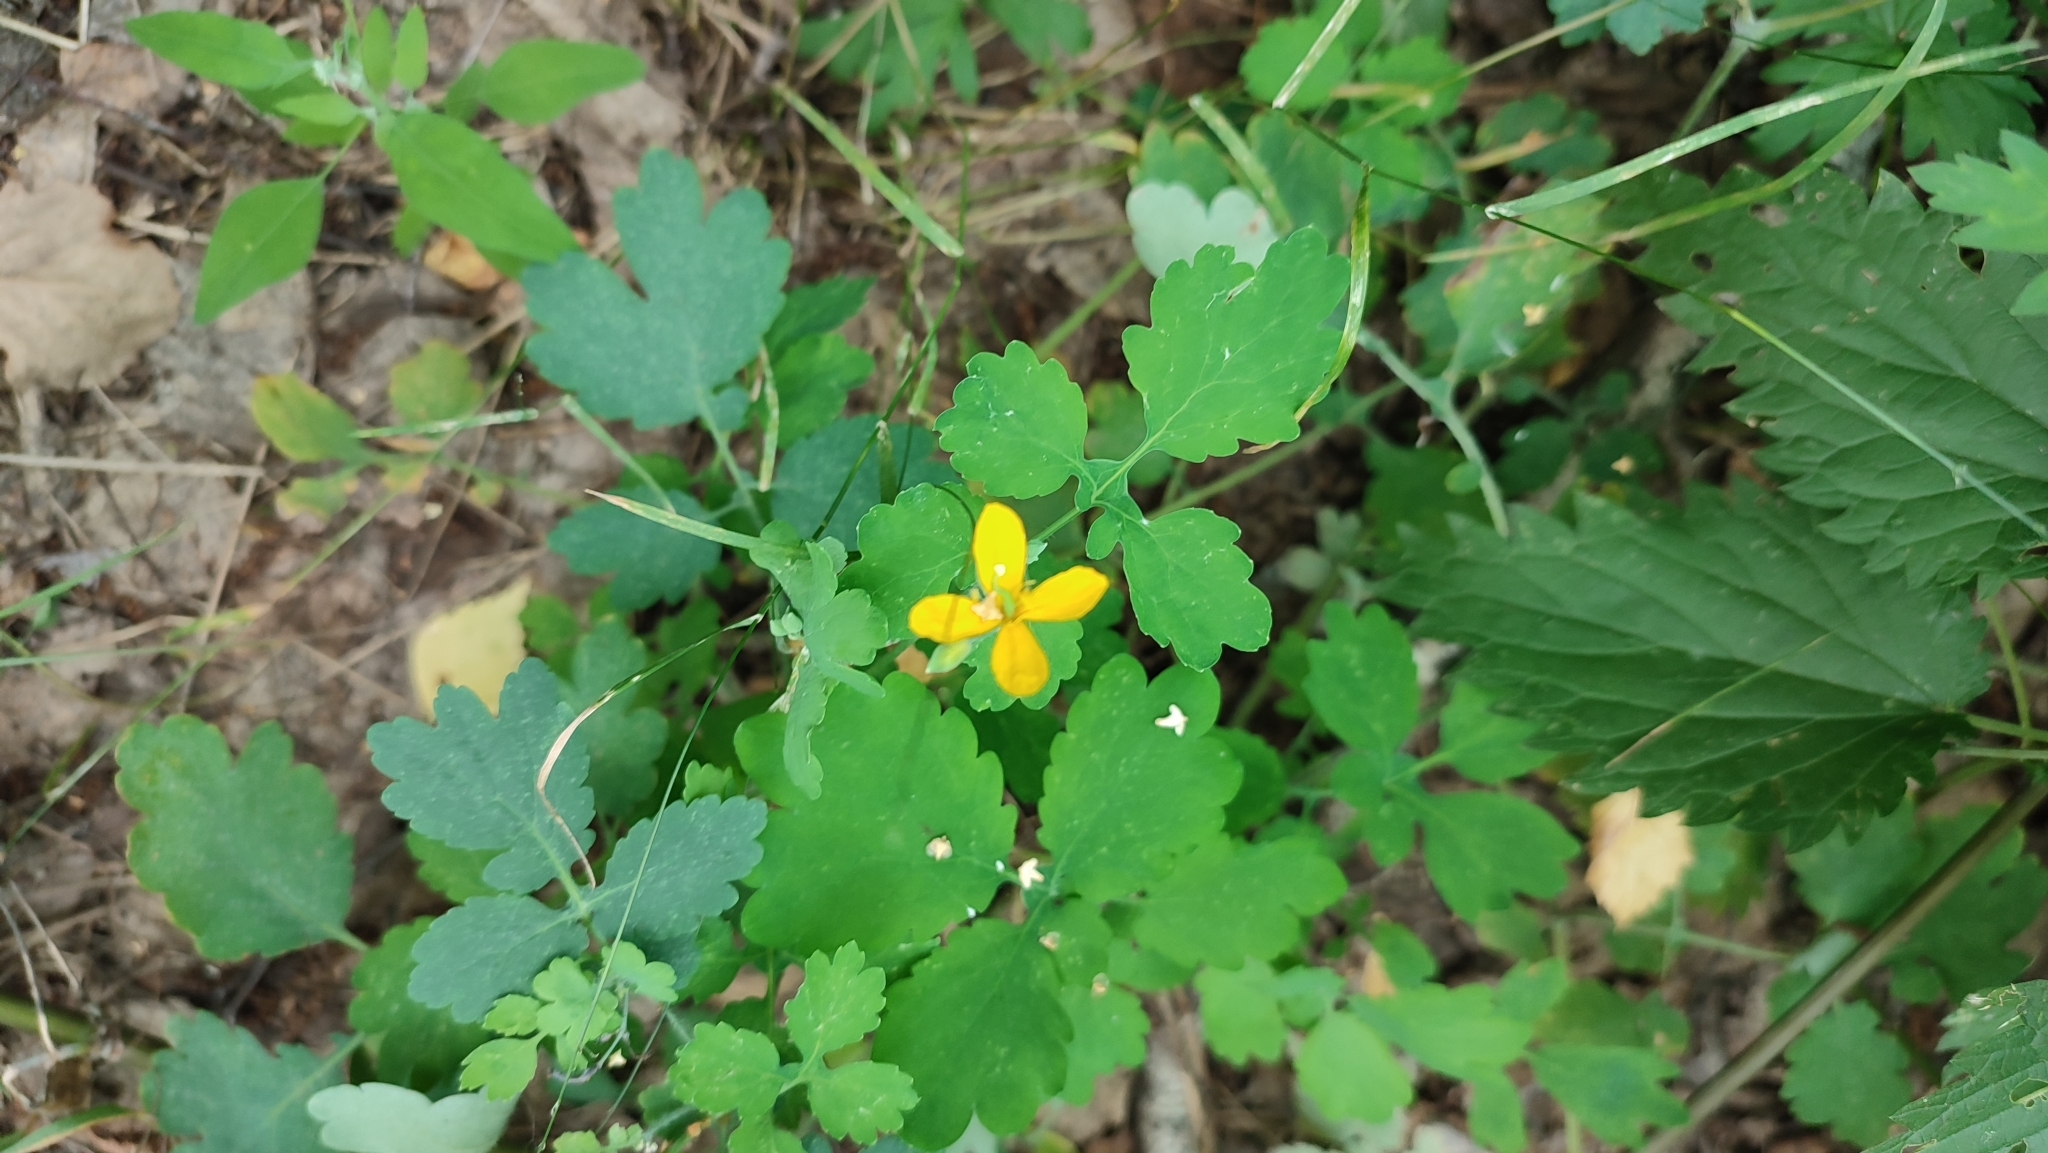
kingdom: Plantae
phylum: Tracheophyta
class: Magnoliopsida
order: Ranunculales
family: Papaveraceae
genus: Chelidonium
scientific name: Chelidonium majus
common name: Greater celandine
